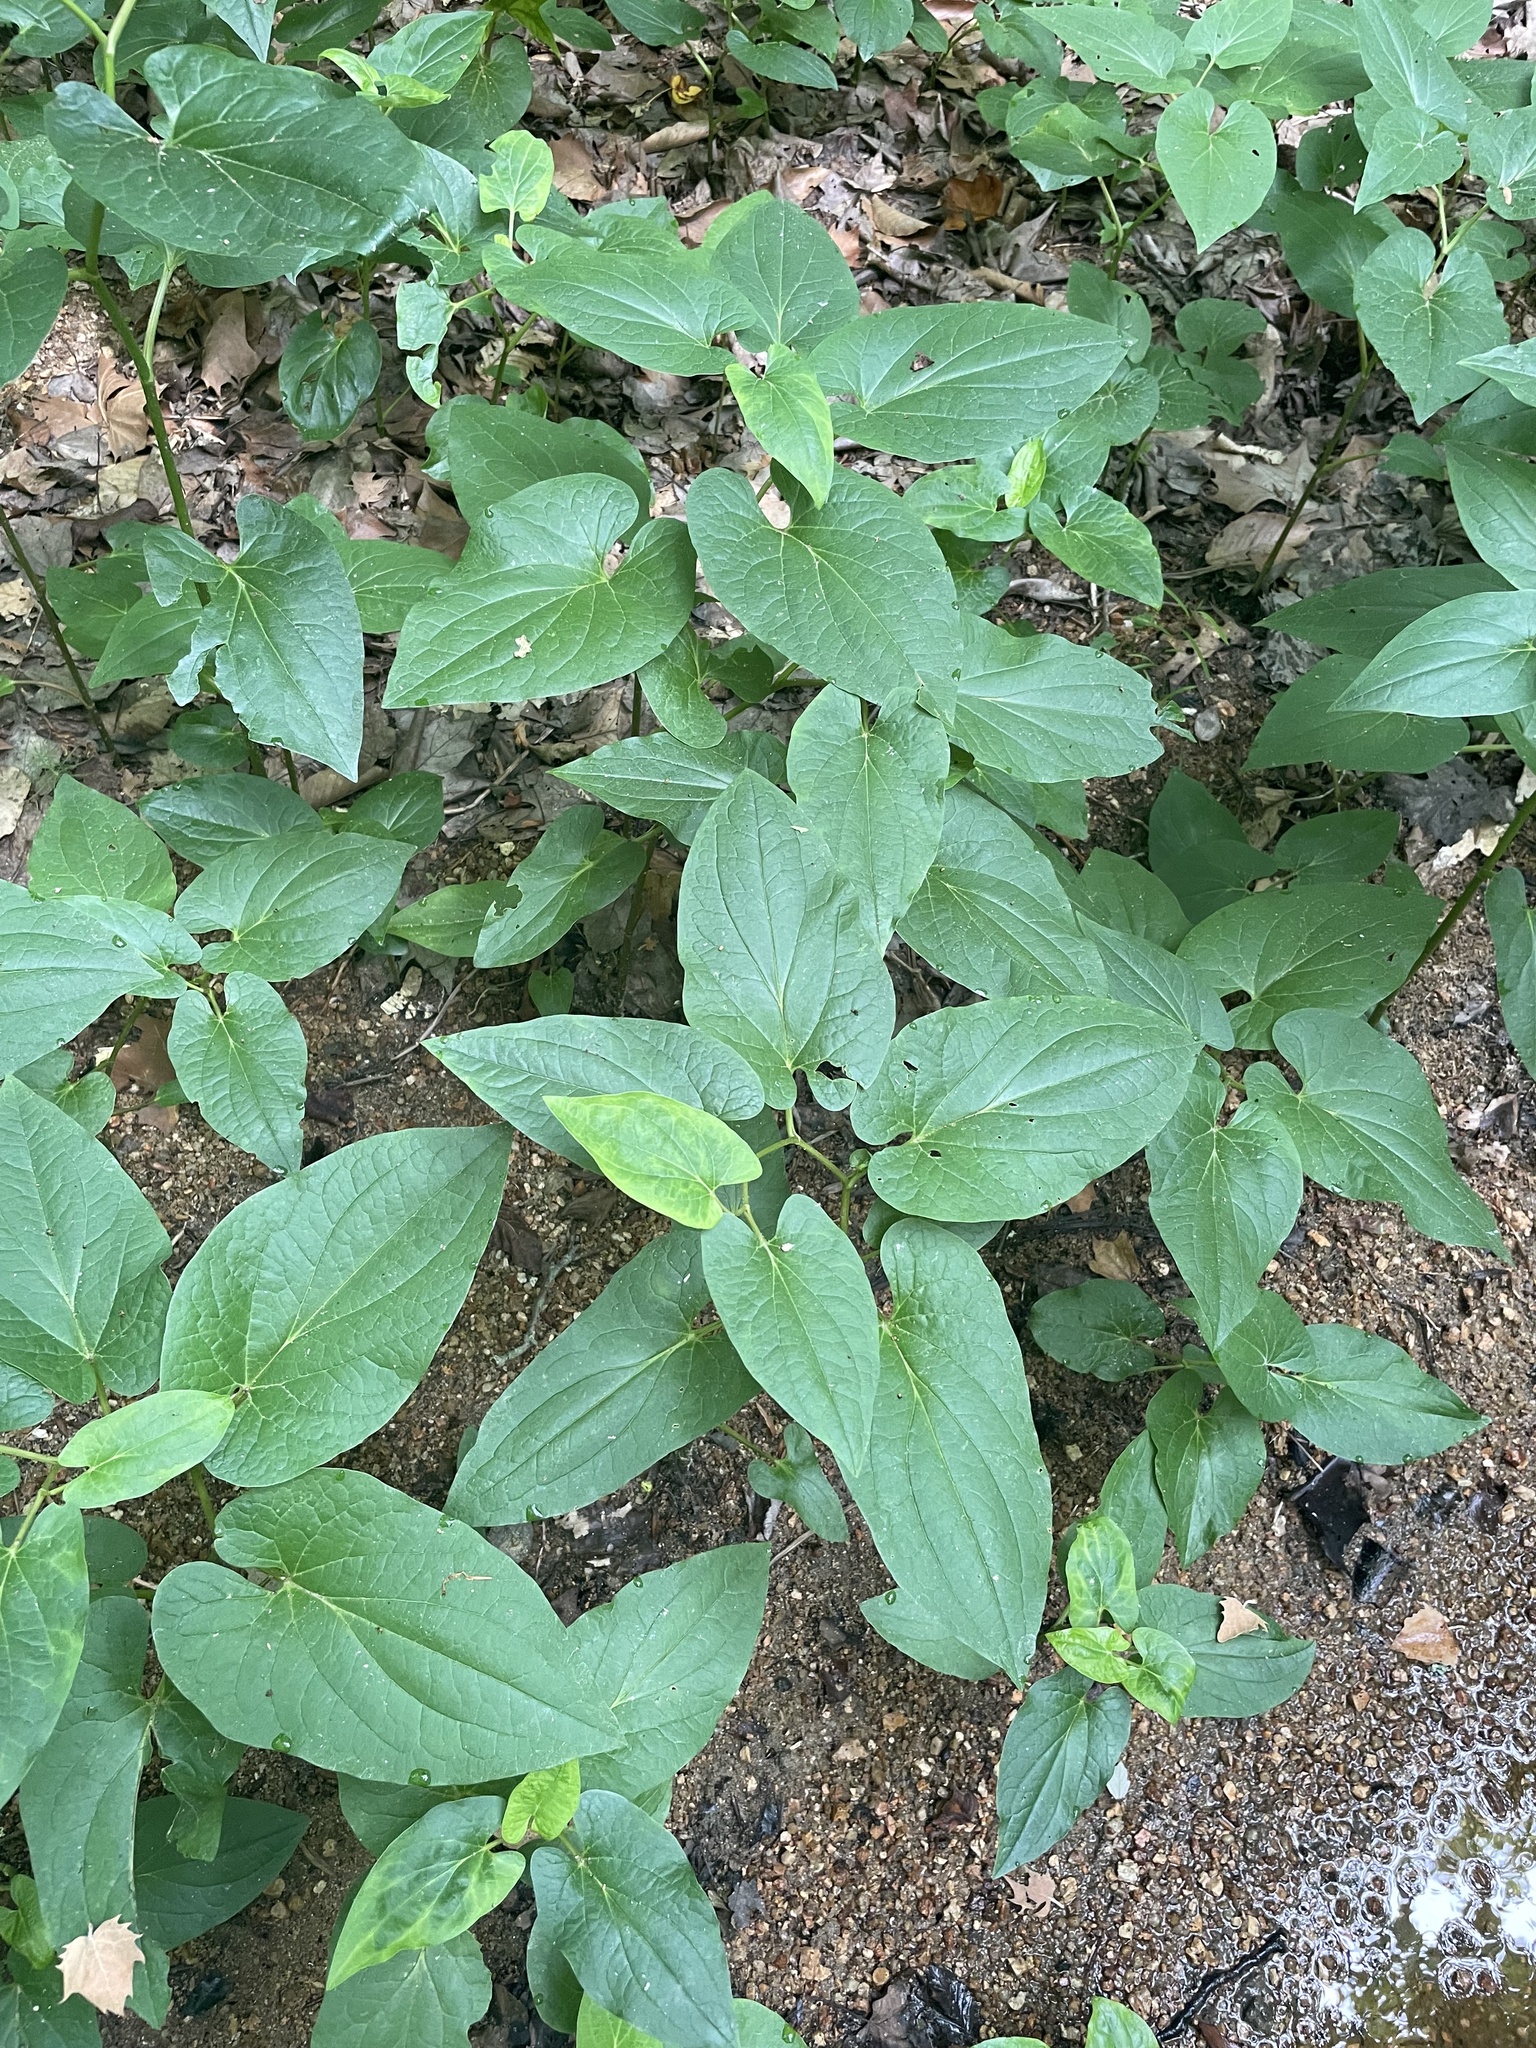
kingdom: Plantae
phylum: Tracheophyta
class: Magnoliopsida
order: Piperales
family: Saururaceae
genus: Saururus
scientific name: Saururus cernuus
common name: Lizard's-tail
